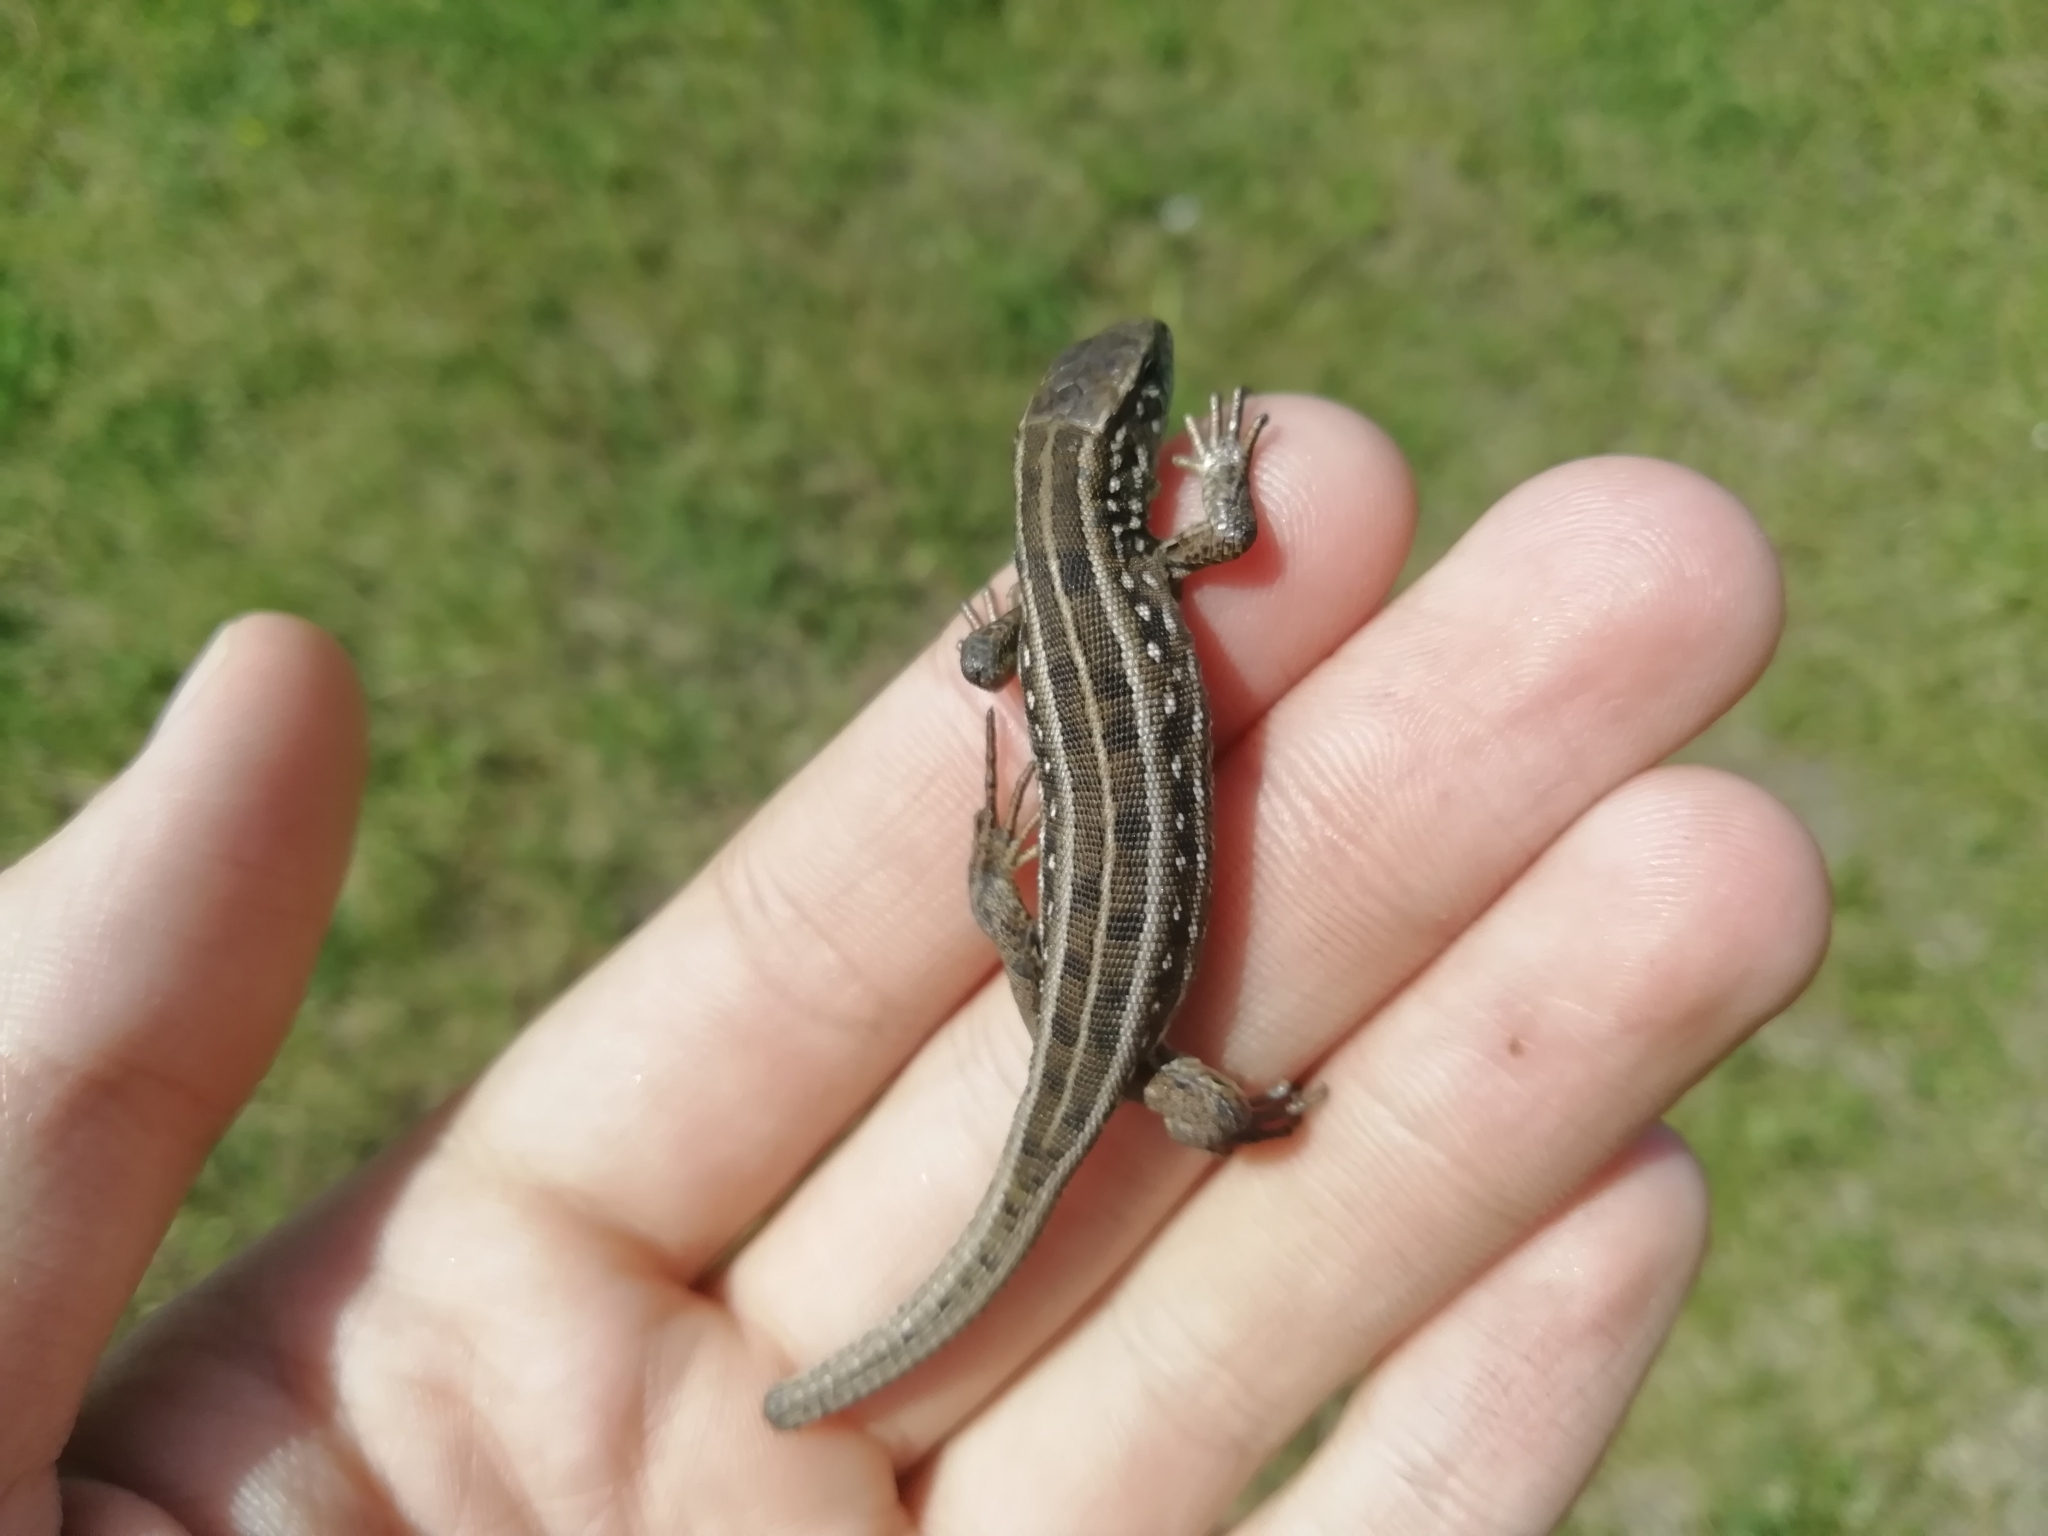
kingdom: Animalia
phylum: Chordata
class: Squamata
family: Lacertidae
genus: Lacerta
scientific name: Lacerta agilis
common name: Sand lizard
